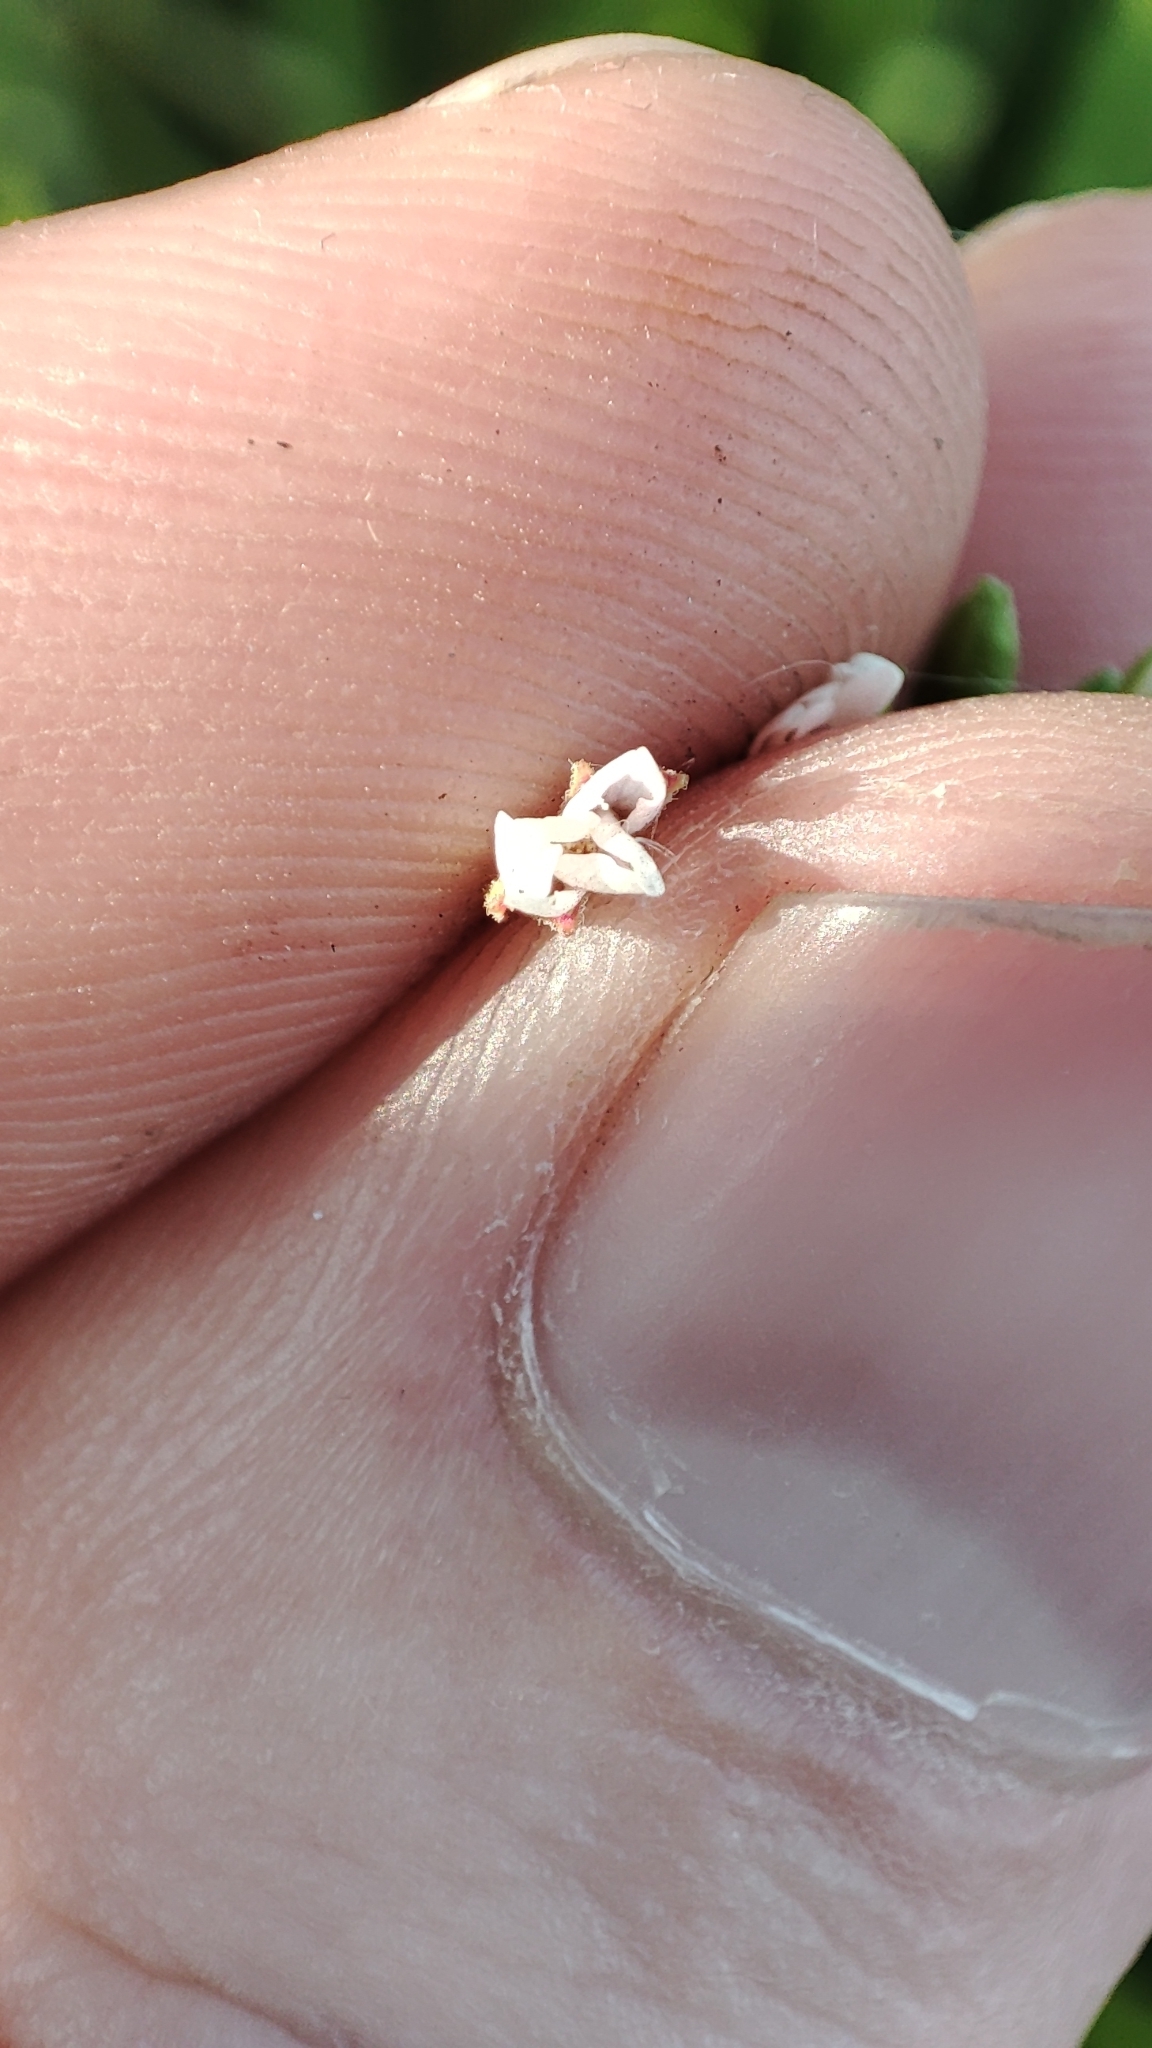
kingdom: Plantae
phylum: Tracheophyta
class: Magnoliopsida
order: Myrtales
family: Onagraceae
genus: Epilobium
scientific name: Epilobium pseudorubescens
